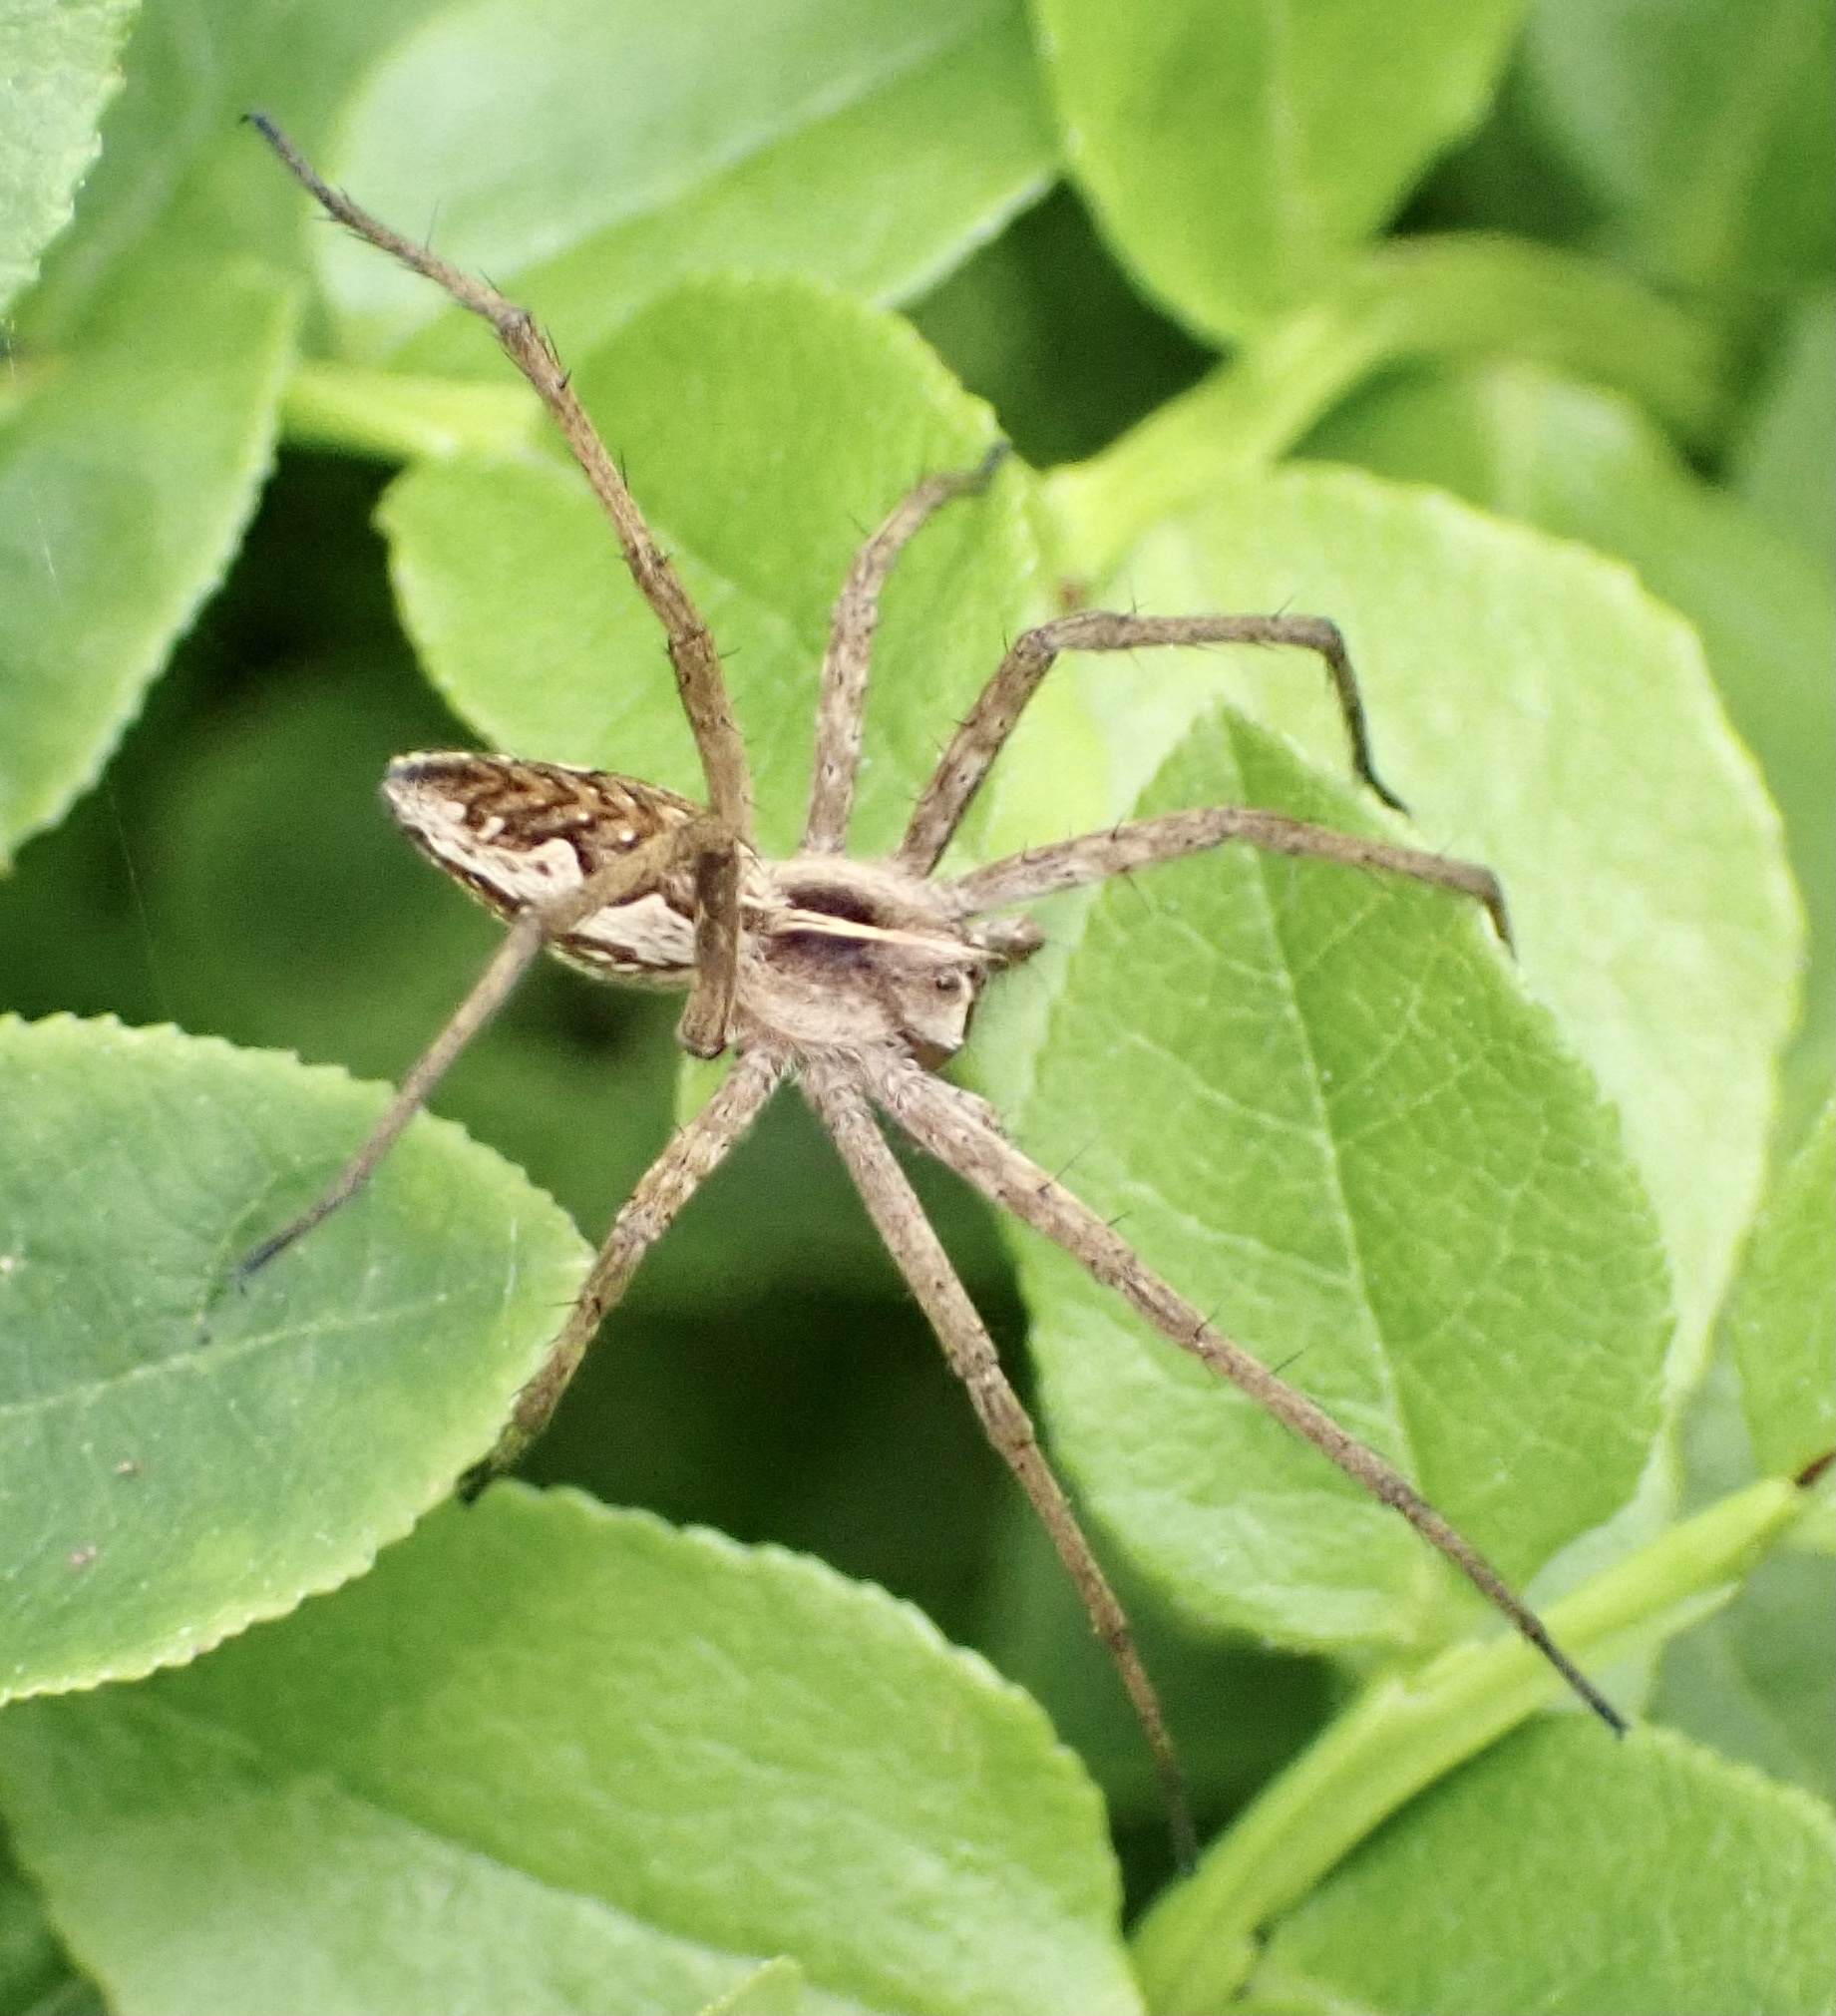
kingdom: Animalia
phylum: Arthropoda
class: Arachnida
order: Araneae
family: Pisauridae
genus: Pisaura
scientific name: Pisaura mirabilis
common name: Tent spider
